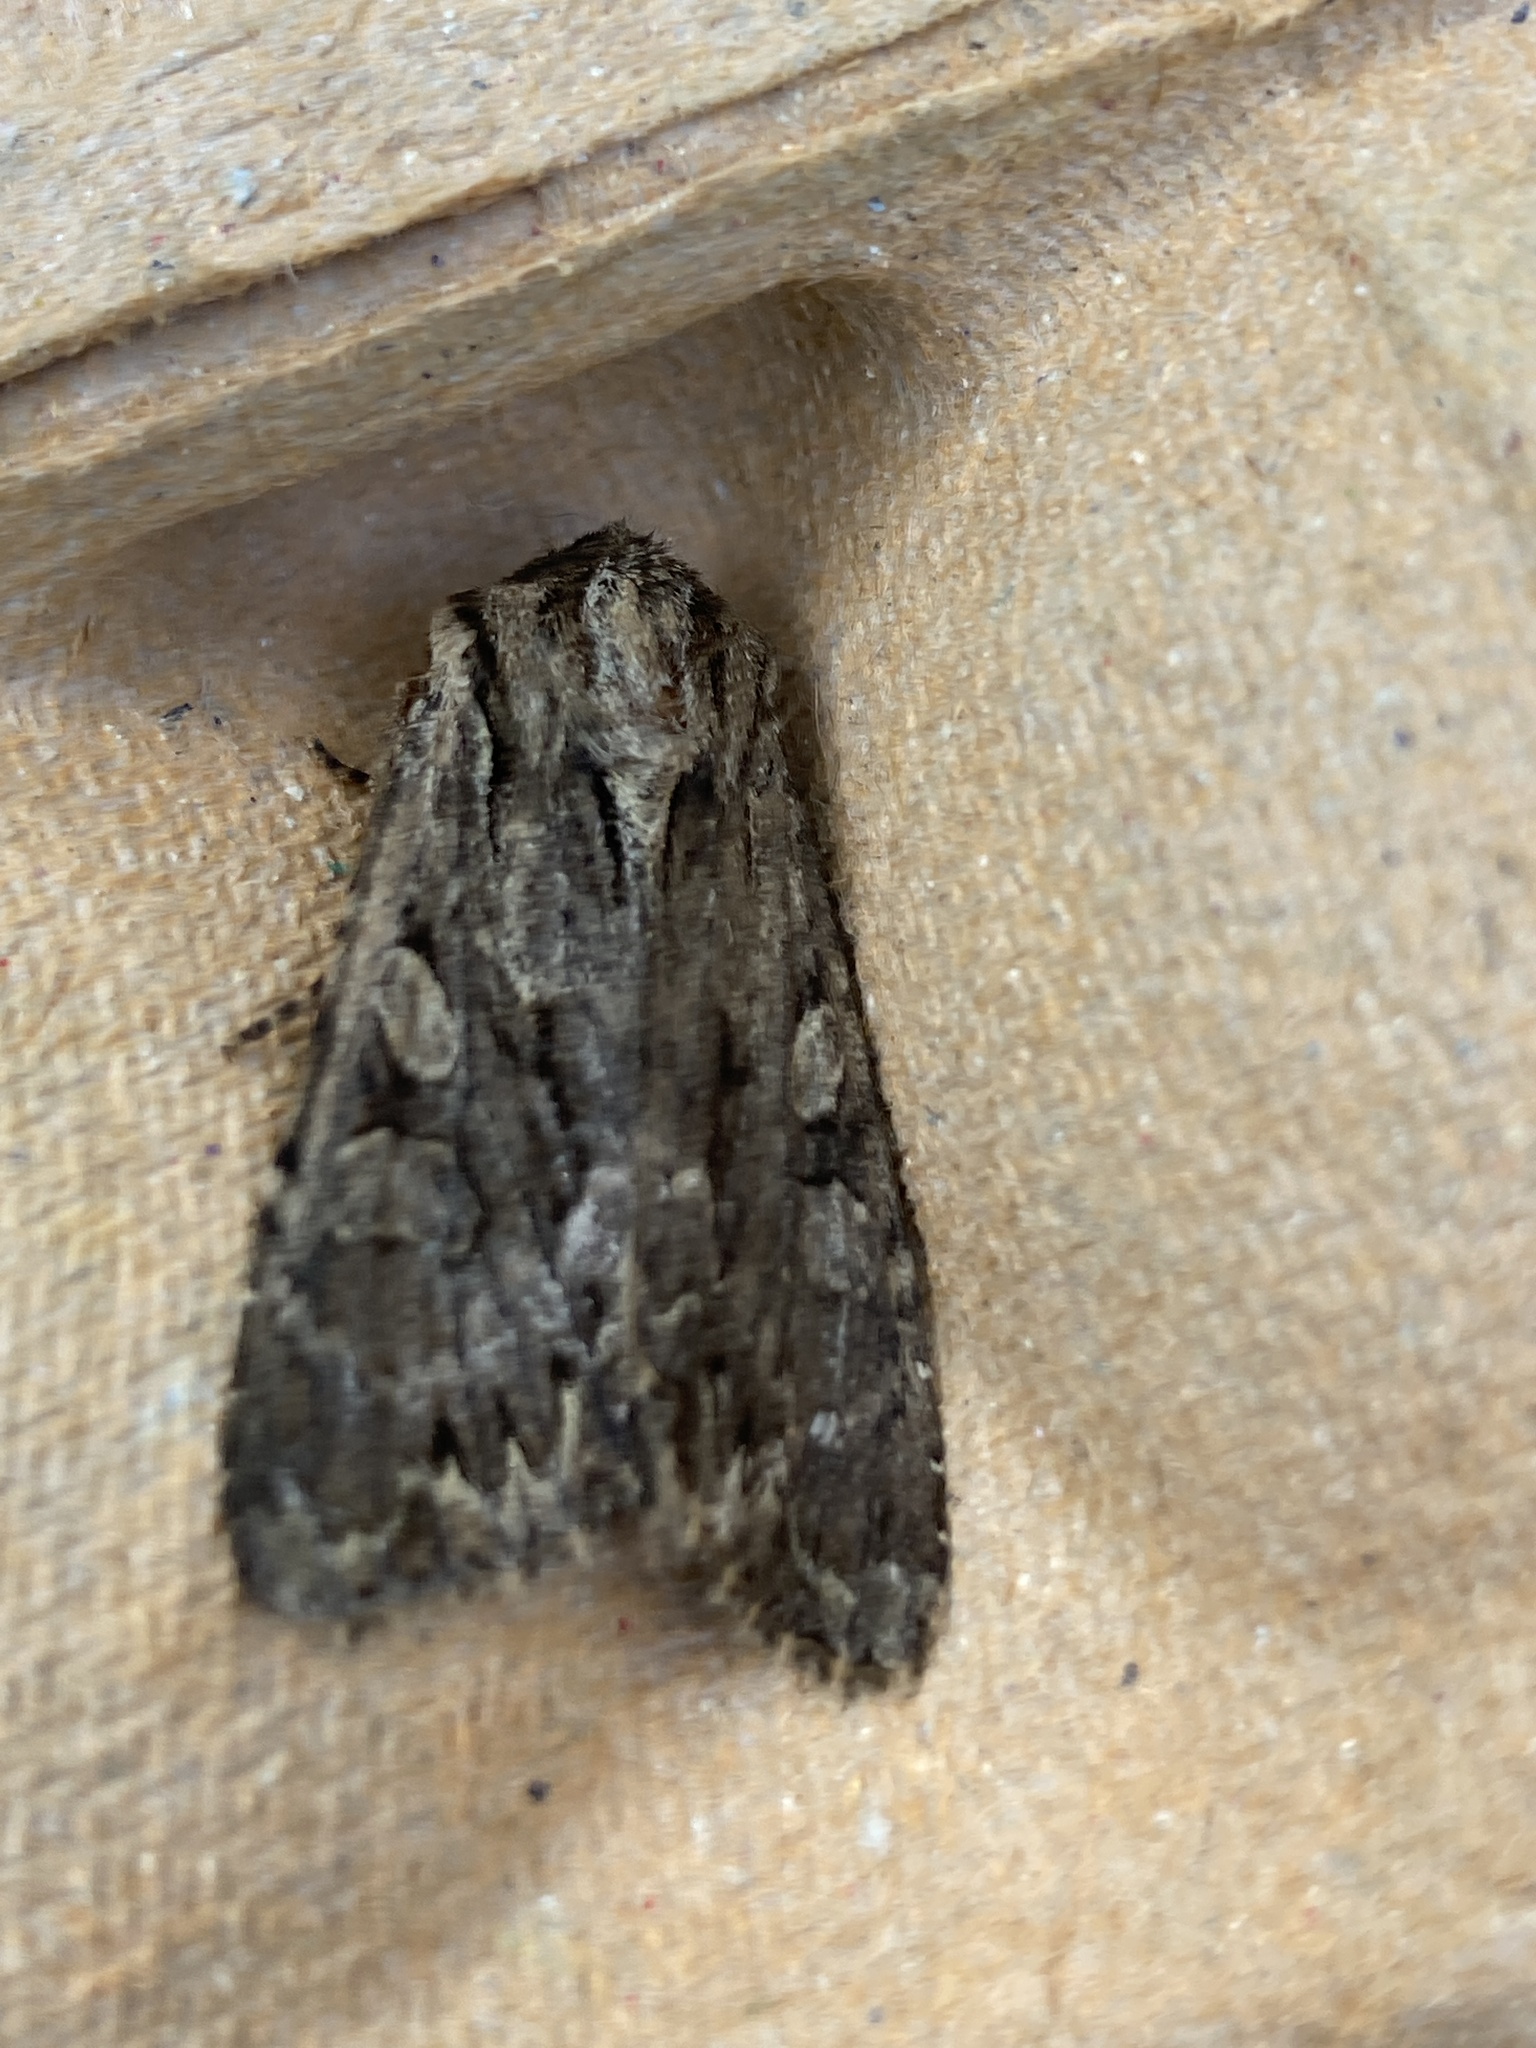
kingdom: Animalia
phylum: Arthropoda
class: Insecta
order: Lepidoptera
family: Noctuidae
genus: Apamea
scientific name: Apamea monoglypha
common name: Dark arches
